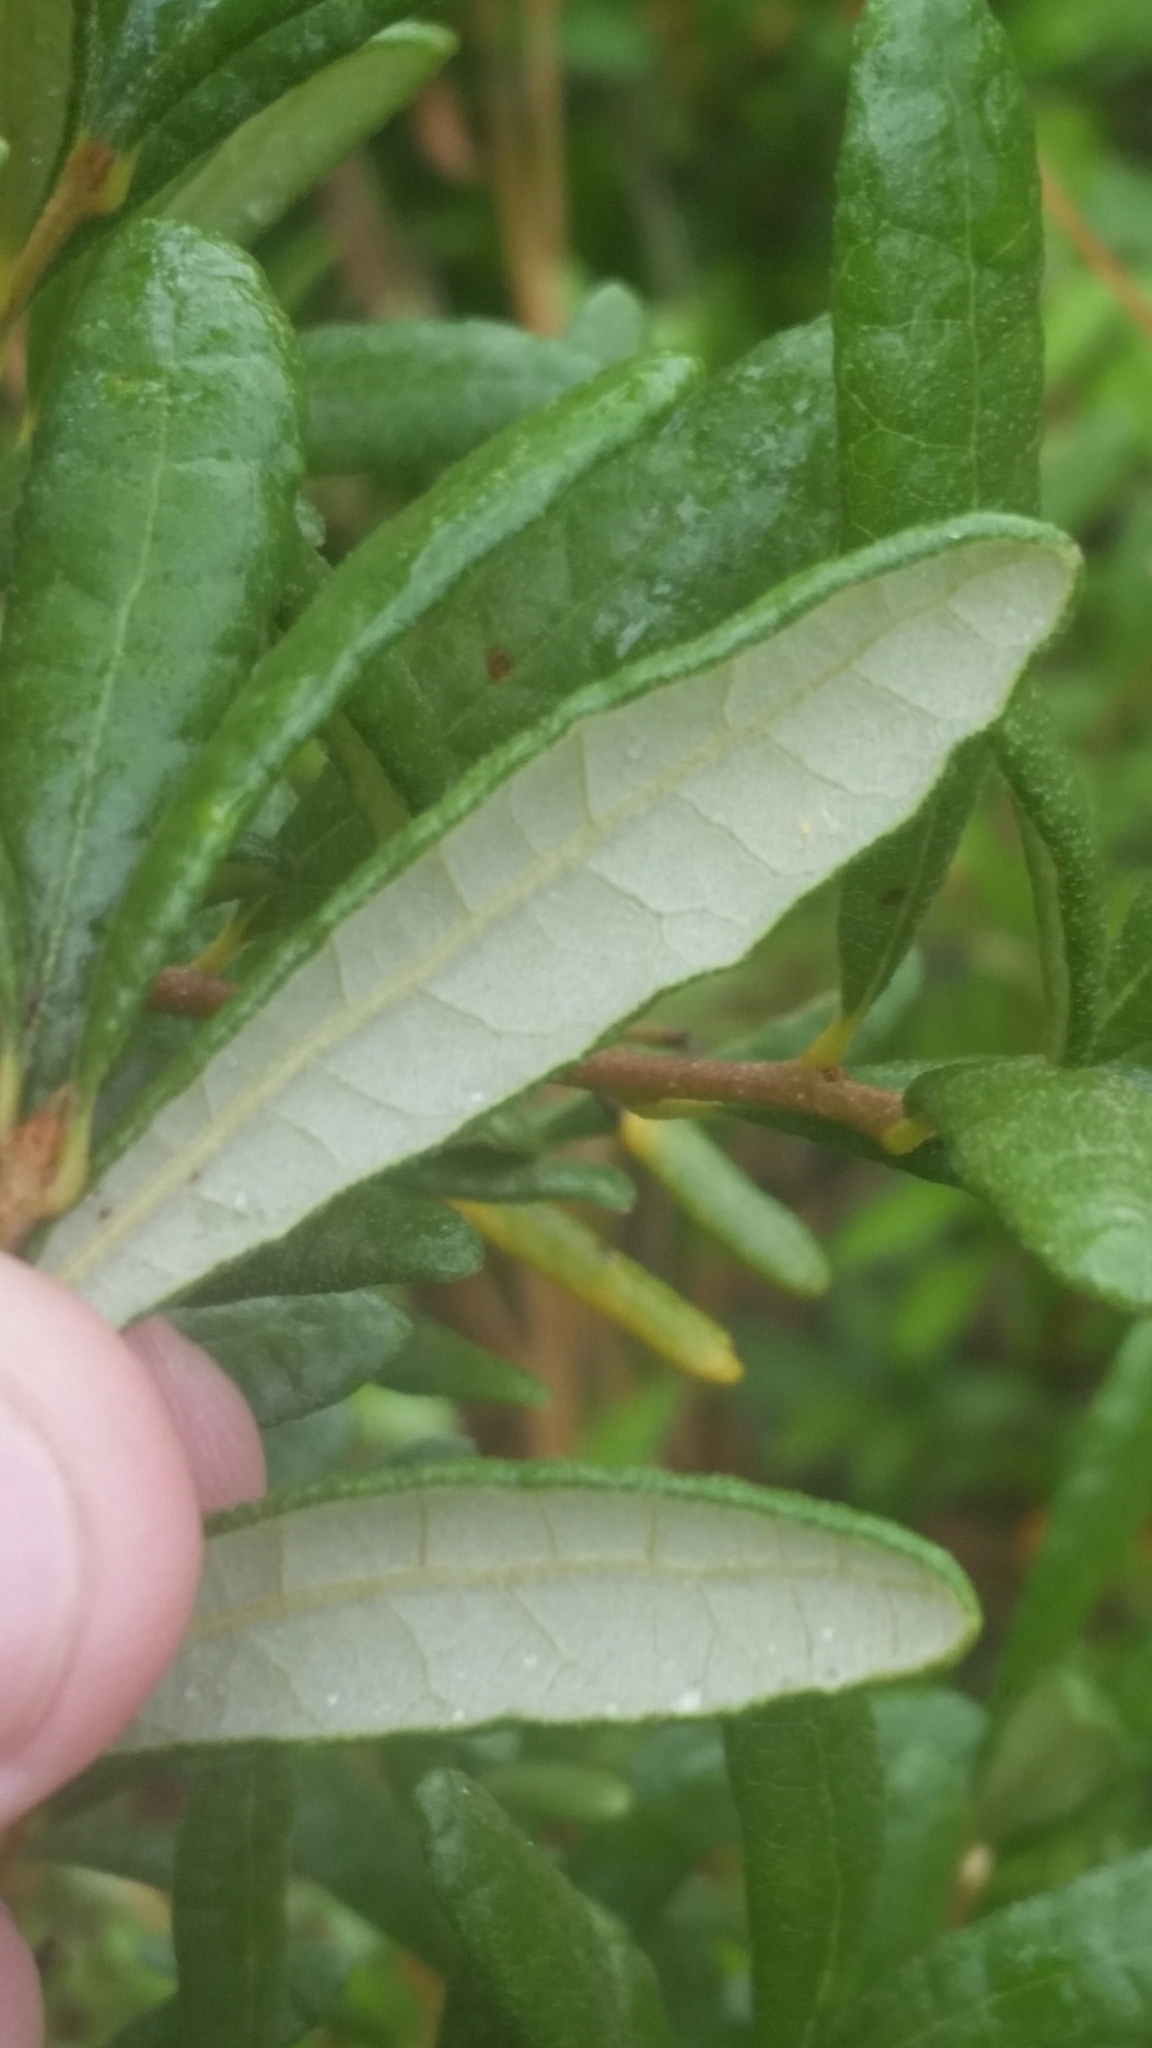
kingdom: Plantae
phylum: Tracheophyta
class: Magnoliopsida
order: Fagales
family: Fagaceae
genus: Quercus
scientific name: Quercus geminata
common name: Sand live oak
